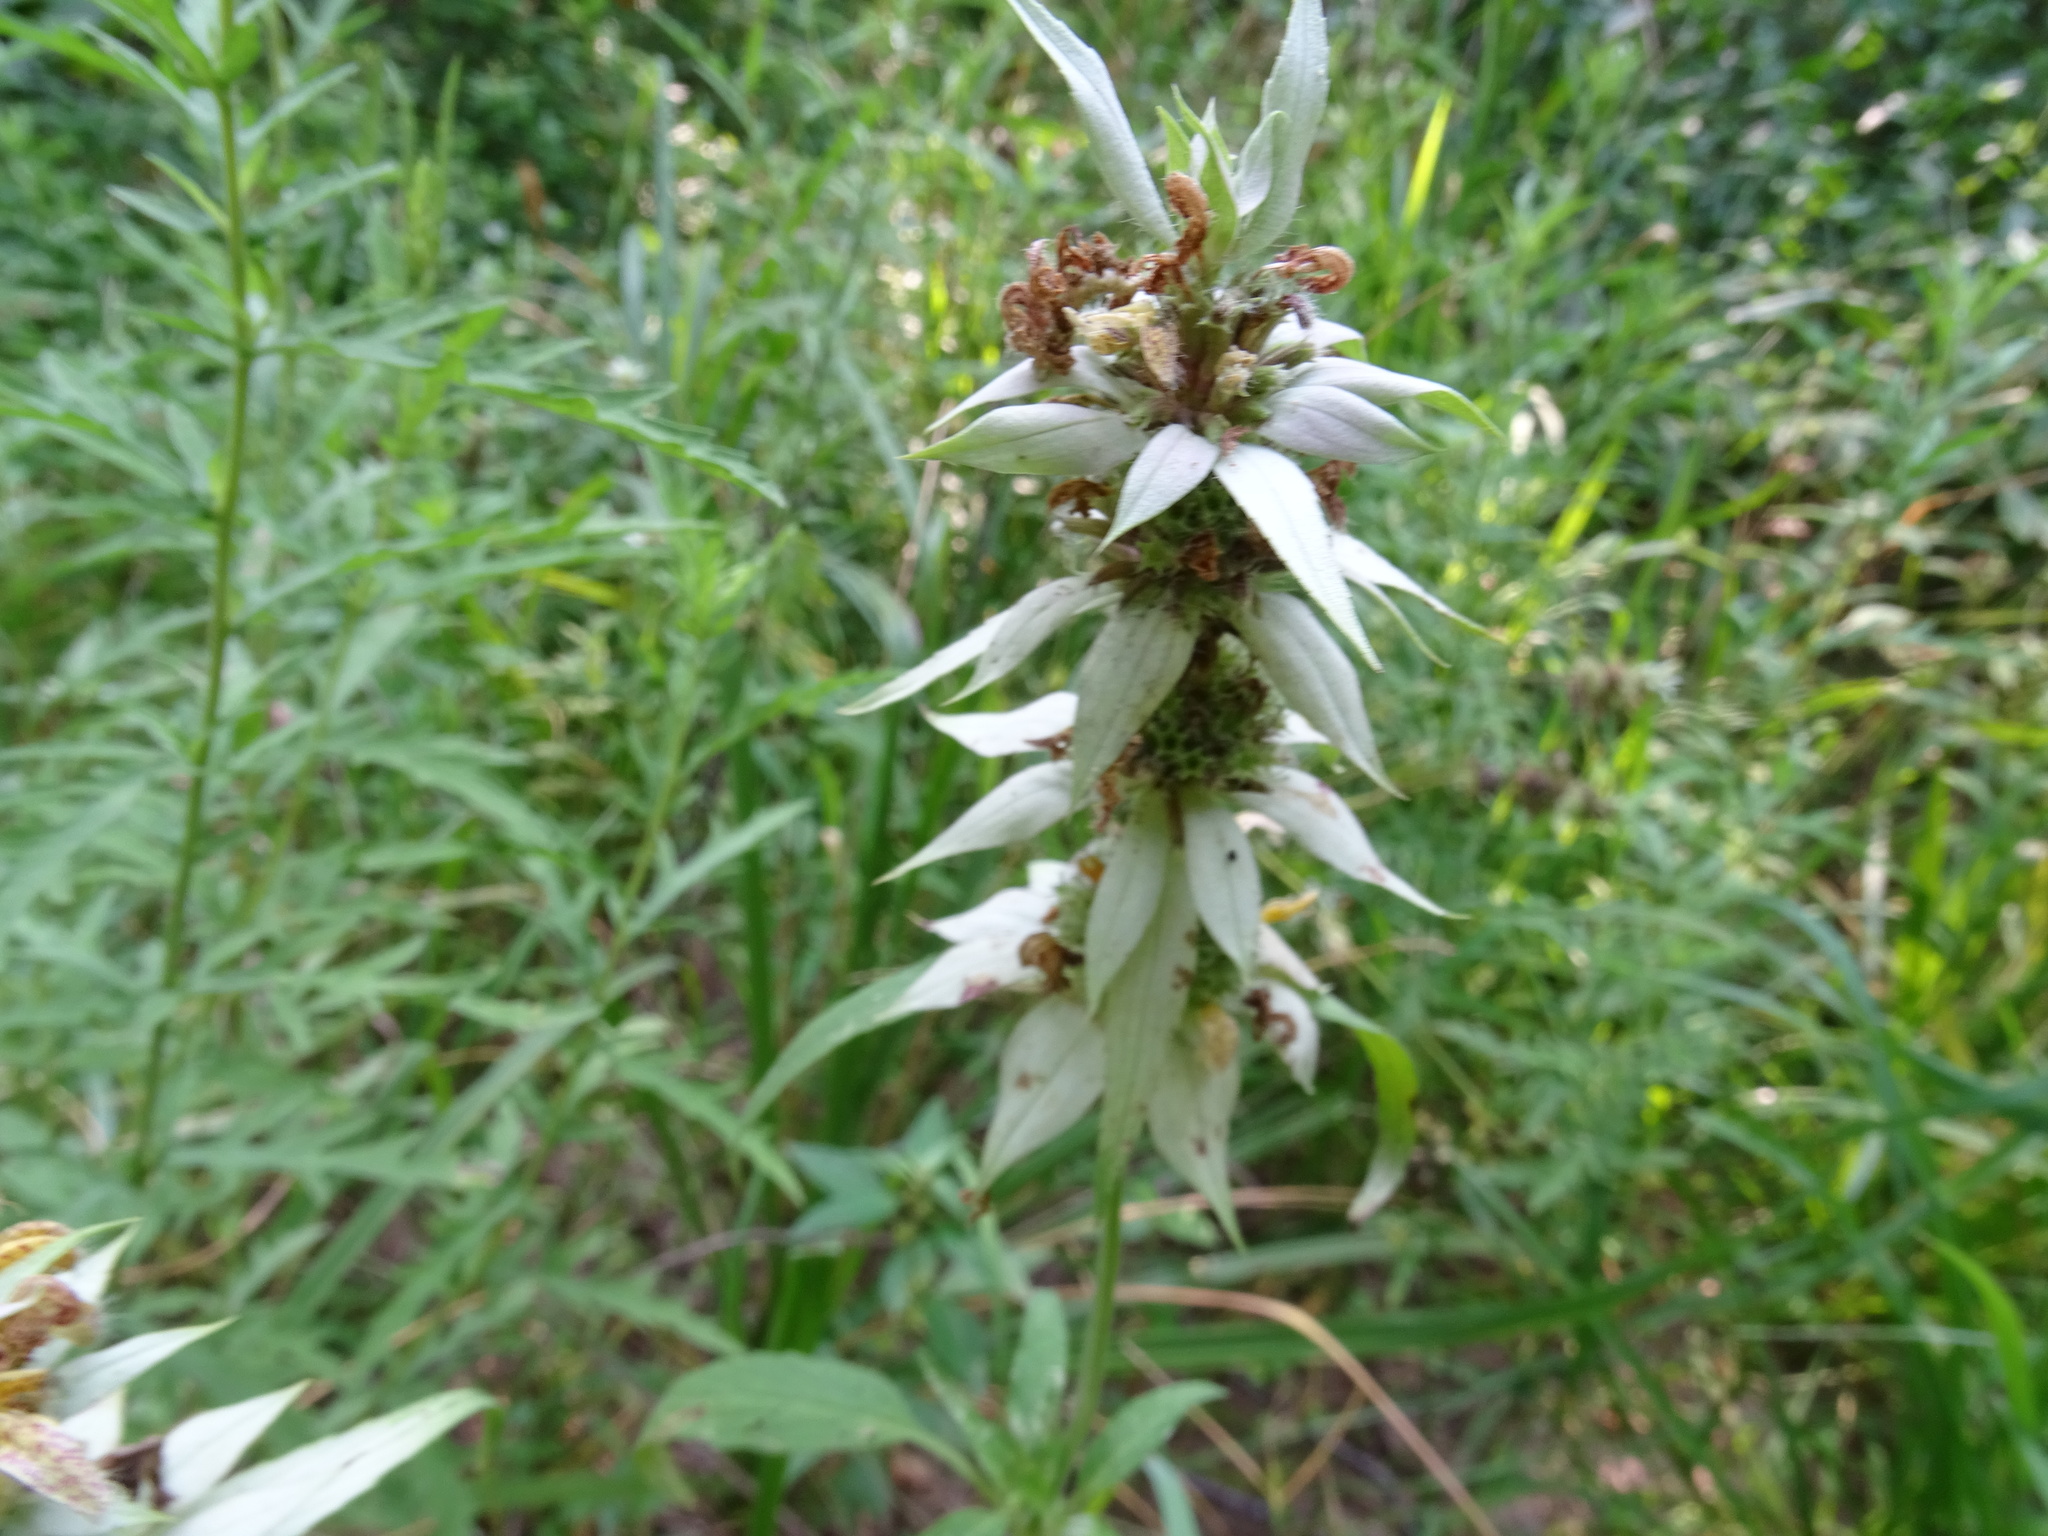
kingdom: Plantae
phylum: Tracheophyta
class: Magnoliopsida
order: Lamiales
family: Lamiaceae
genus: Monarda
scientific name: Monarda punctata
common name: Dotted monarda
